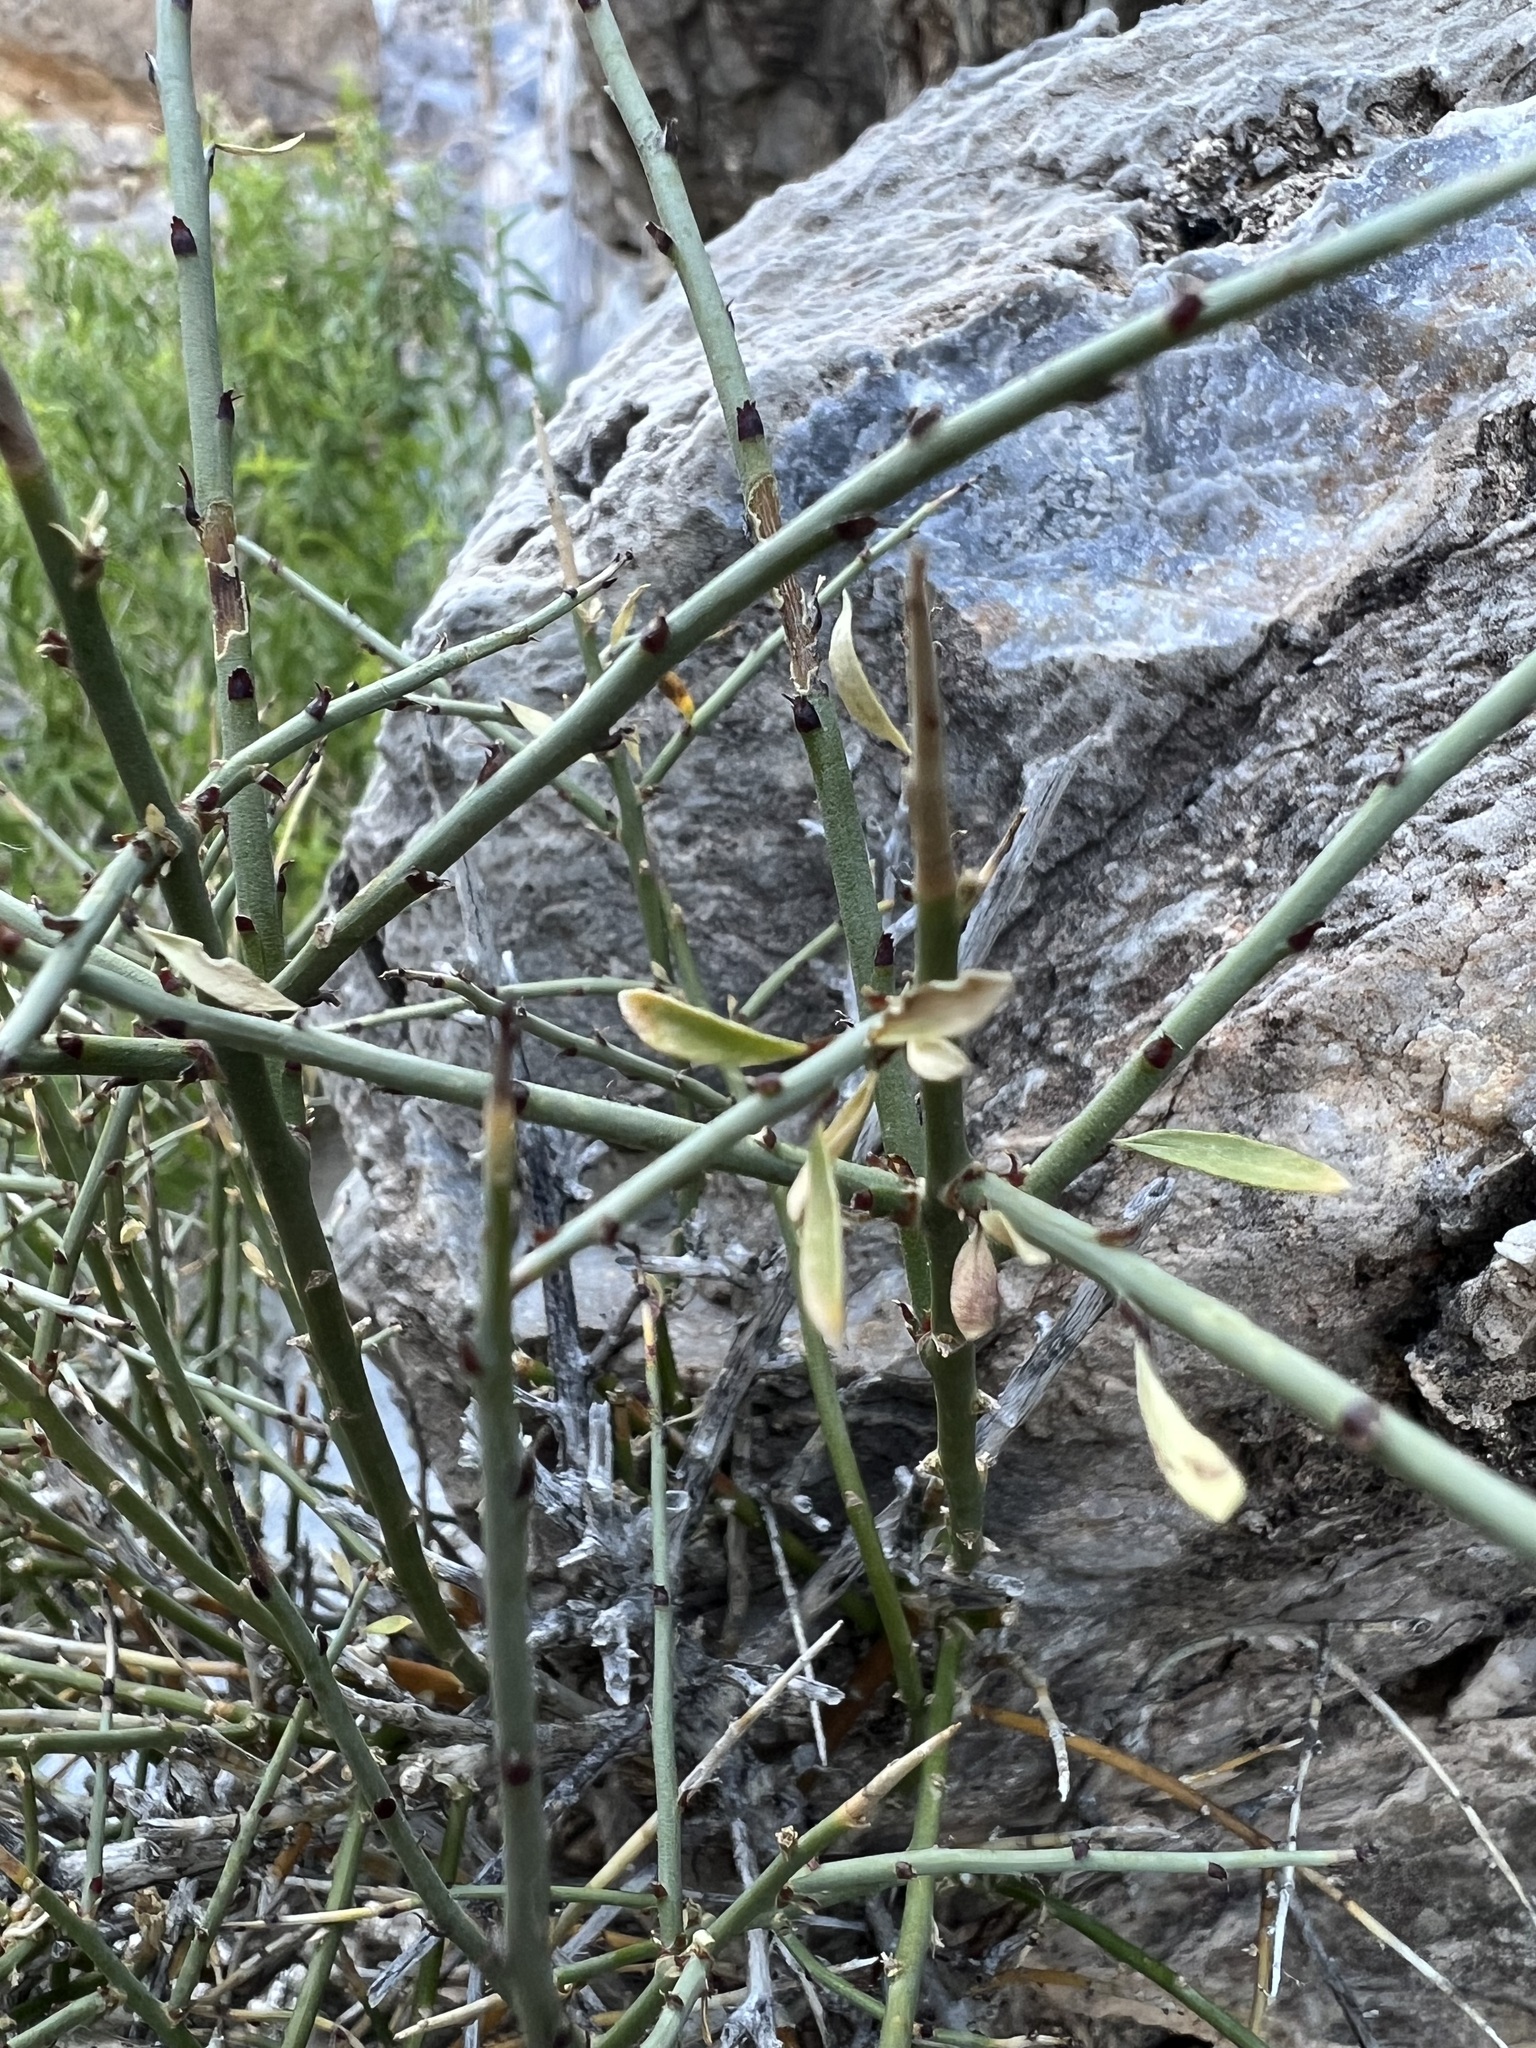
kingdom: Plantae
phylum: Tracheophyta
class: Magnoliopsida
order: Crossosomatales
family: Crossosomataceae
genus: Glossopetalon
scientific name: Glossopetalon spinescens
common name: Spring greasebush
